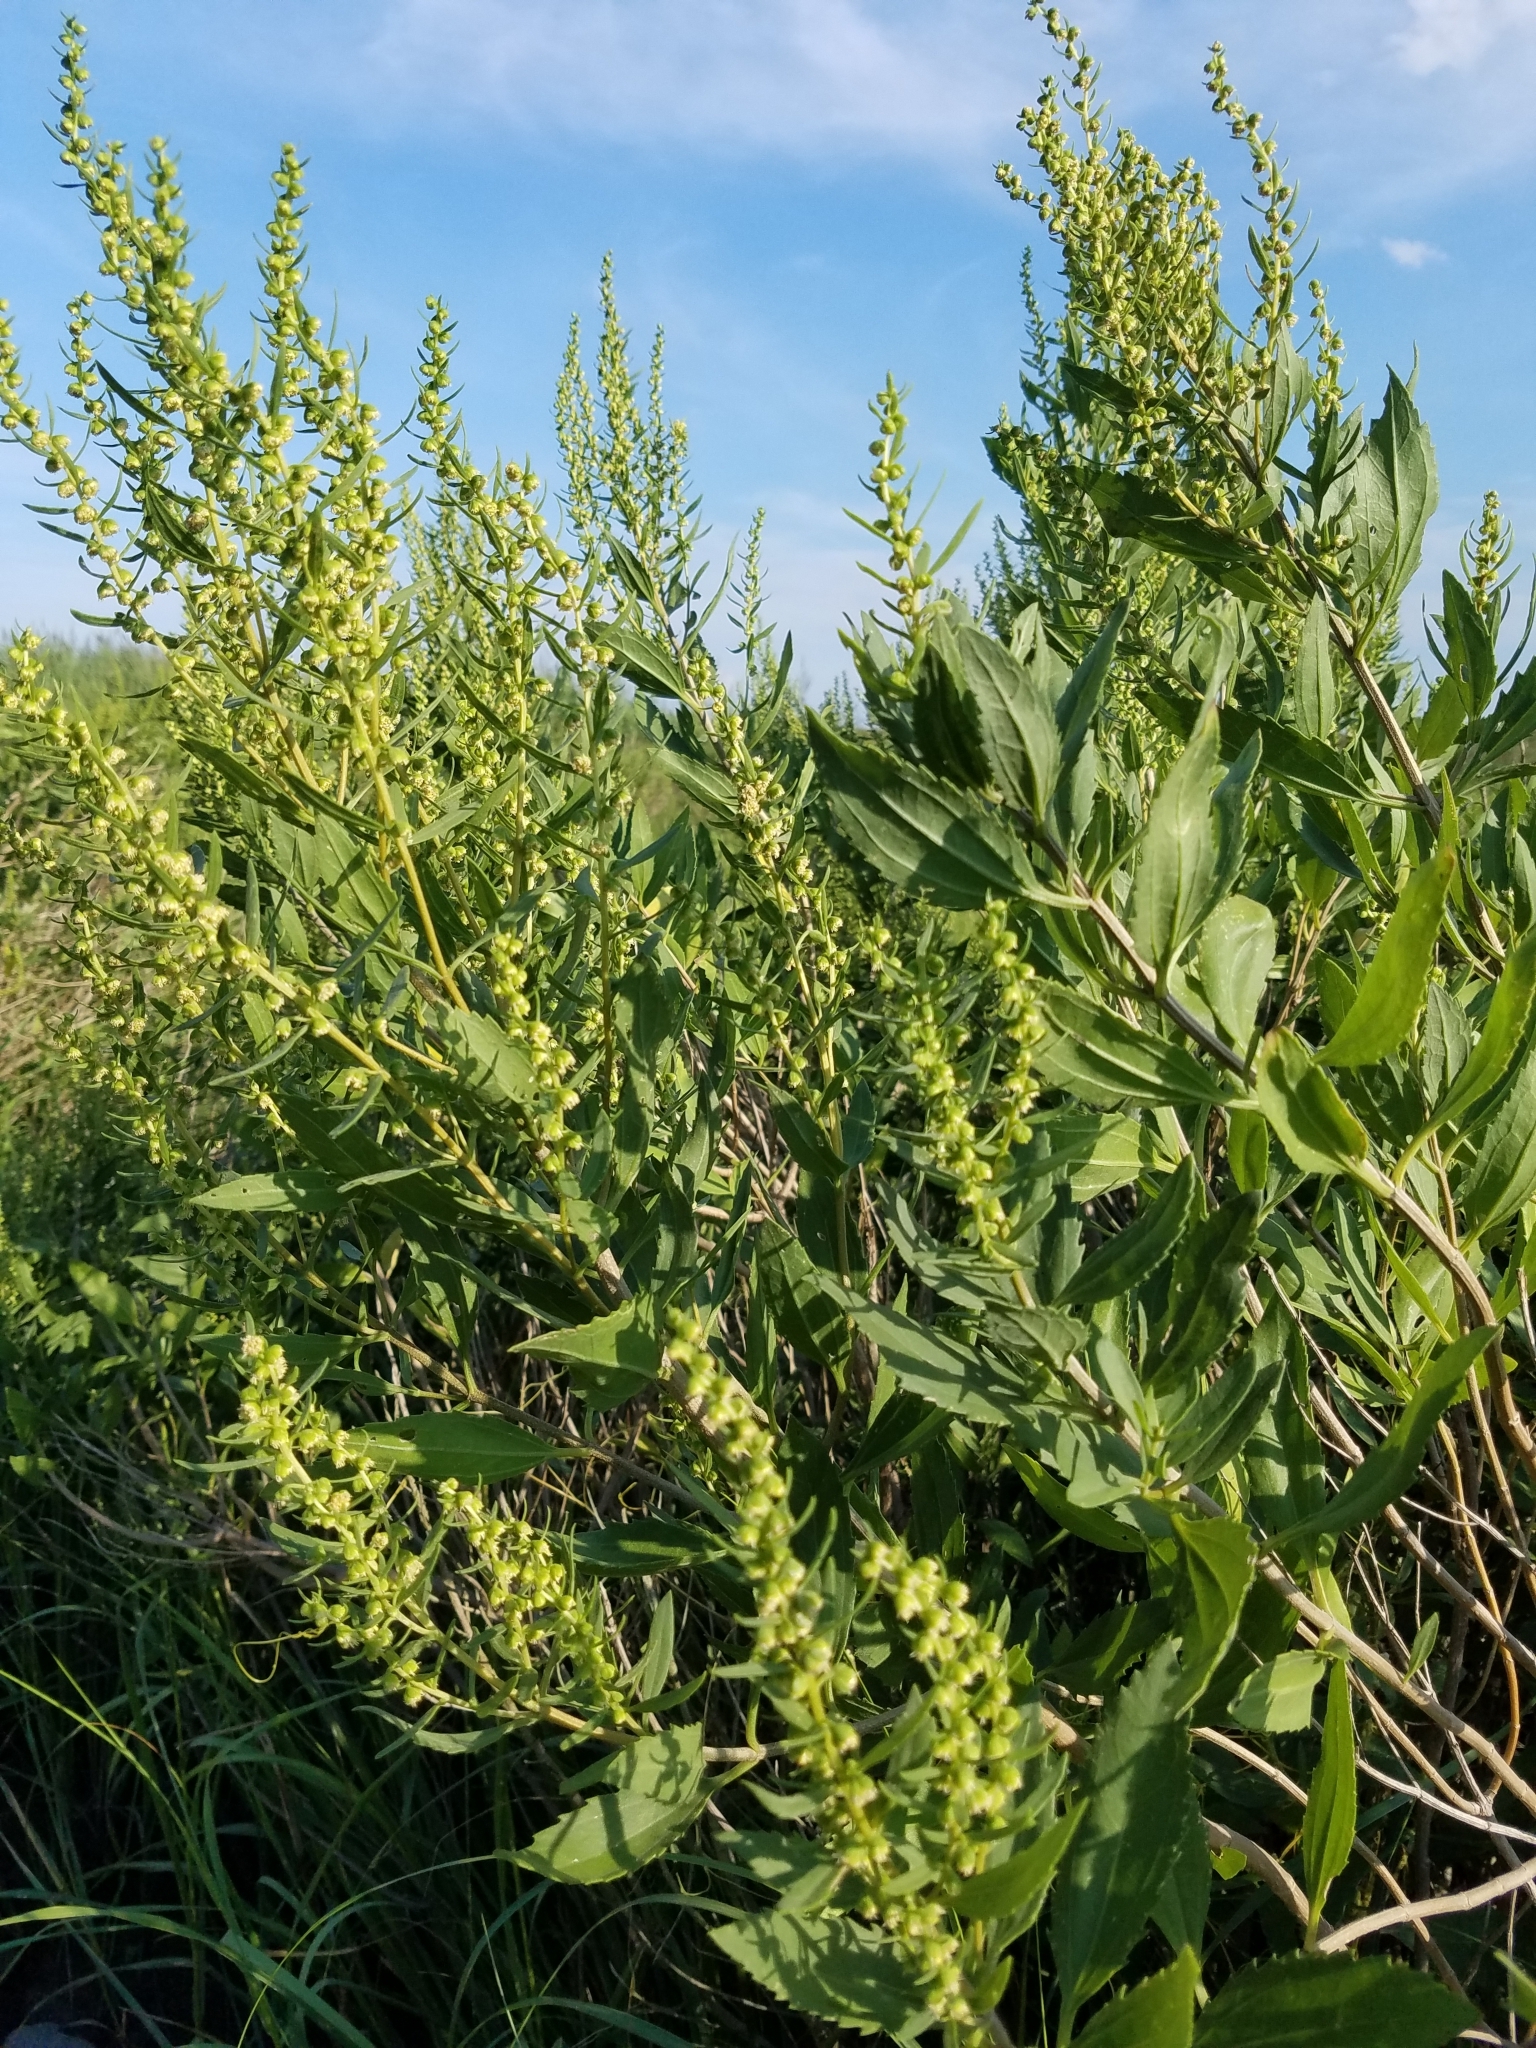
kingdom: Plantae
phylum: Tracheophyta
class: Magnoliopsida
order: Asterales
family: Asteraceae
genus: Baccharis
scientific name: Baccharis halimifolia
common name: Eastern baccharis
